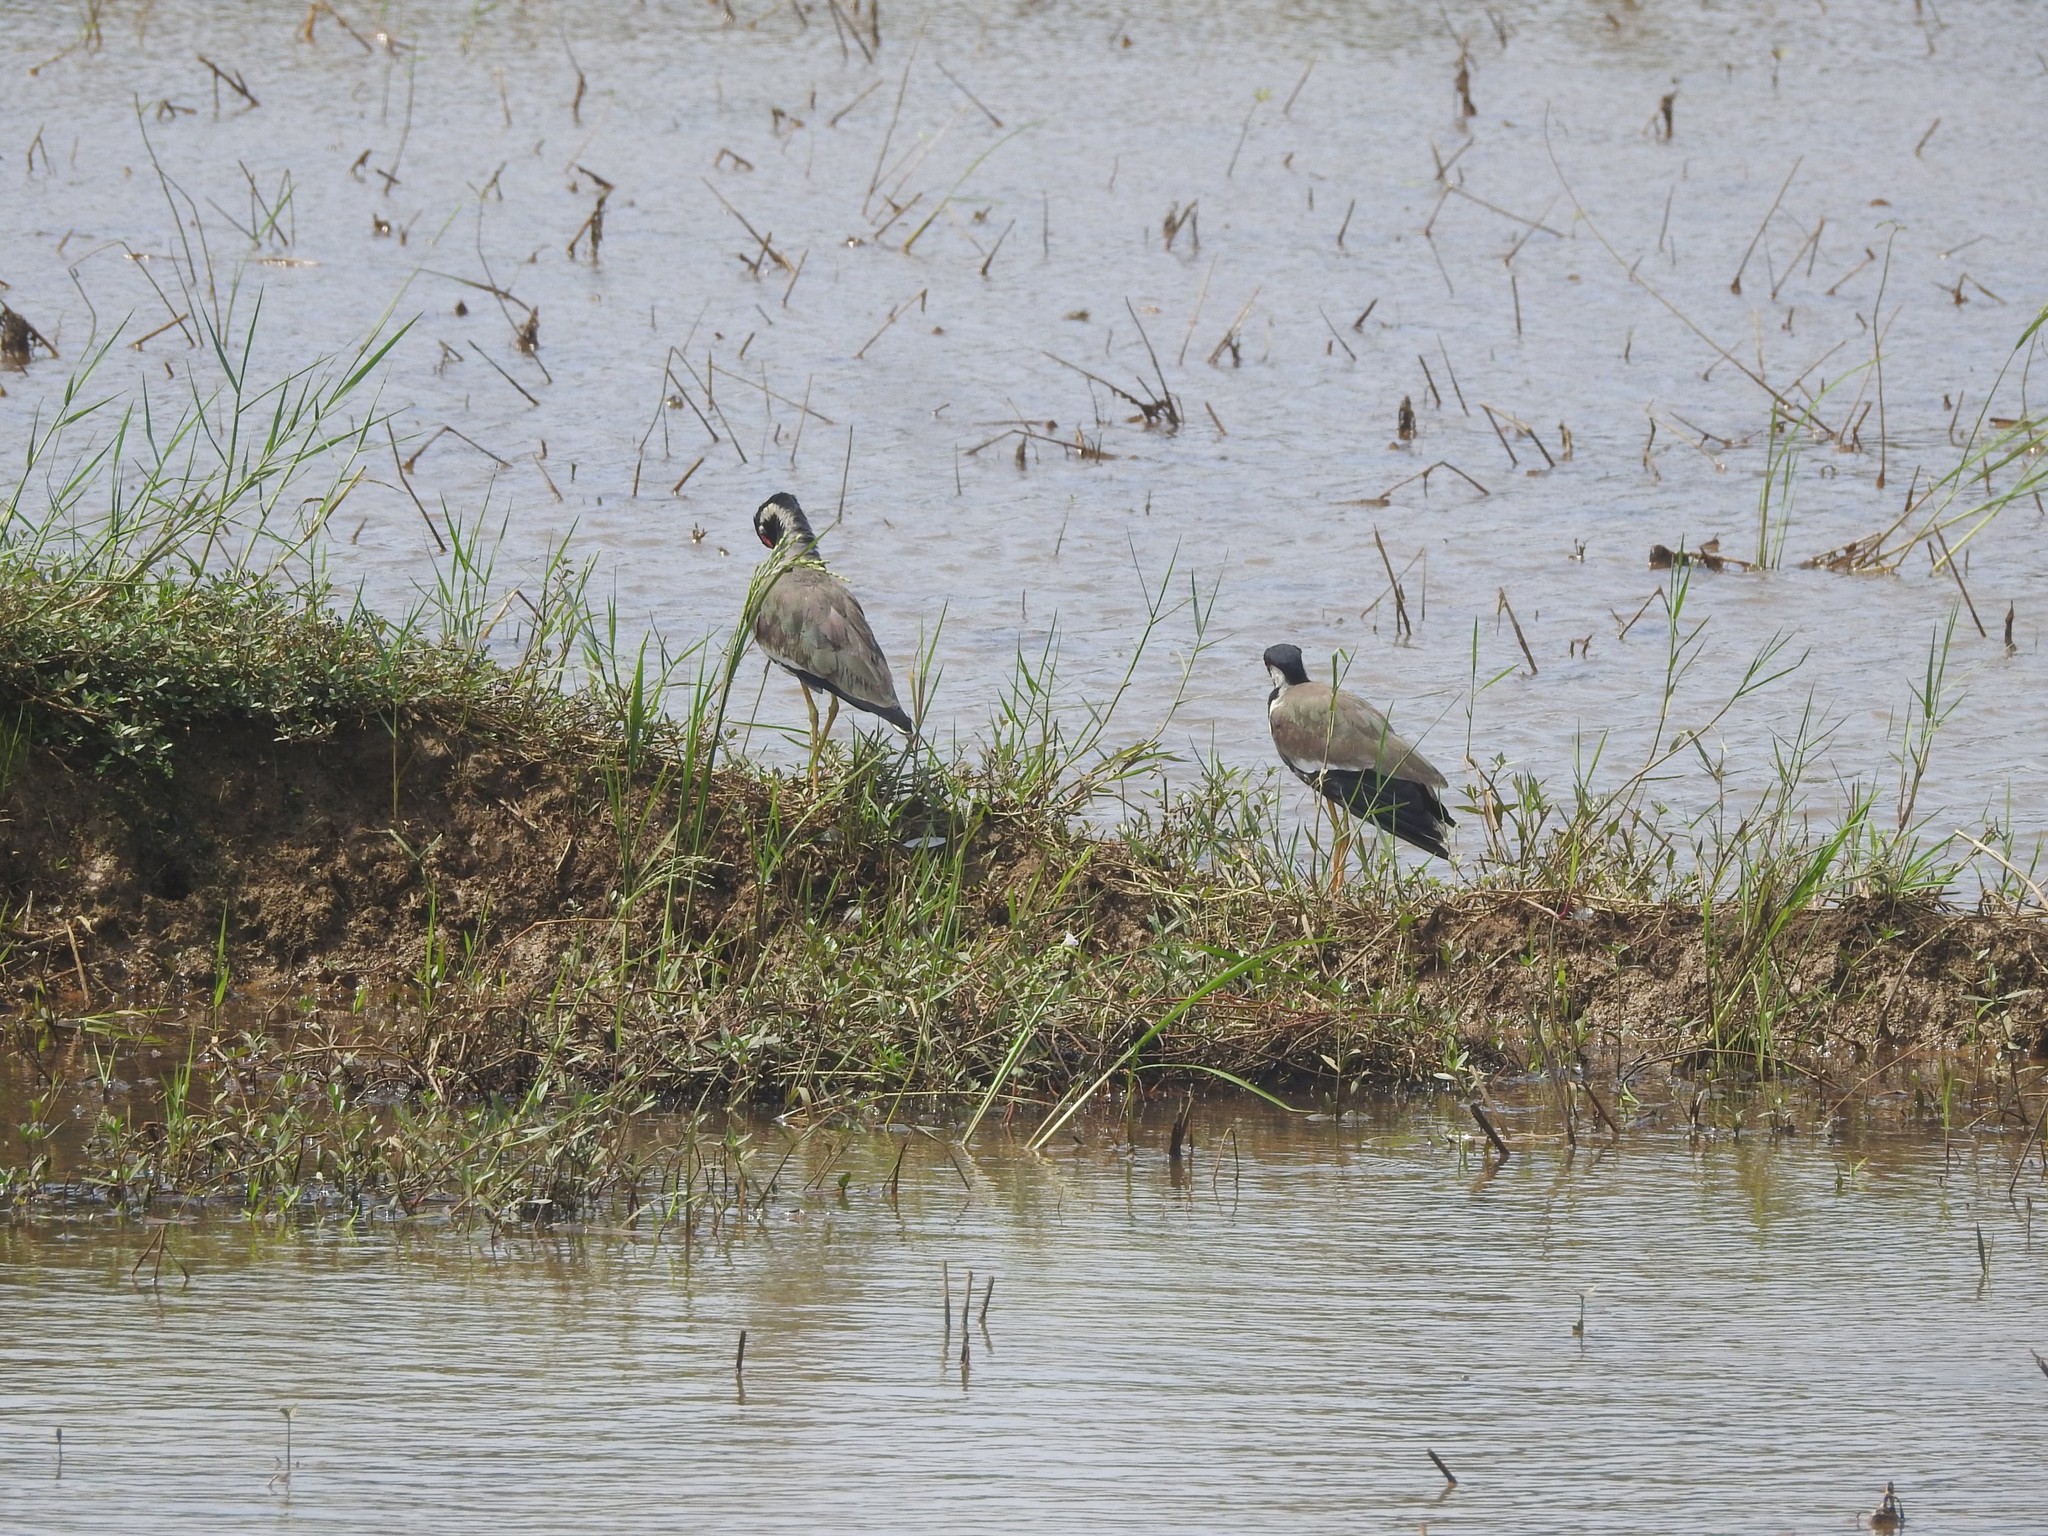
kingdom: Animalia
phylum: Chordata
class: Aves
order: Charadriiformes
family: Charadriidae
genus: Vanellus
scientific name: Vanellus indicus
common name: Red-wattled lapwing
